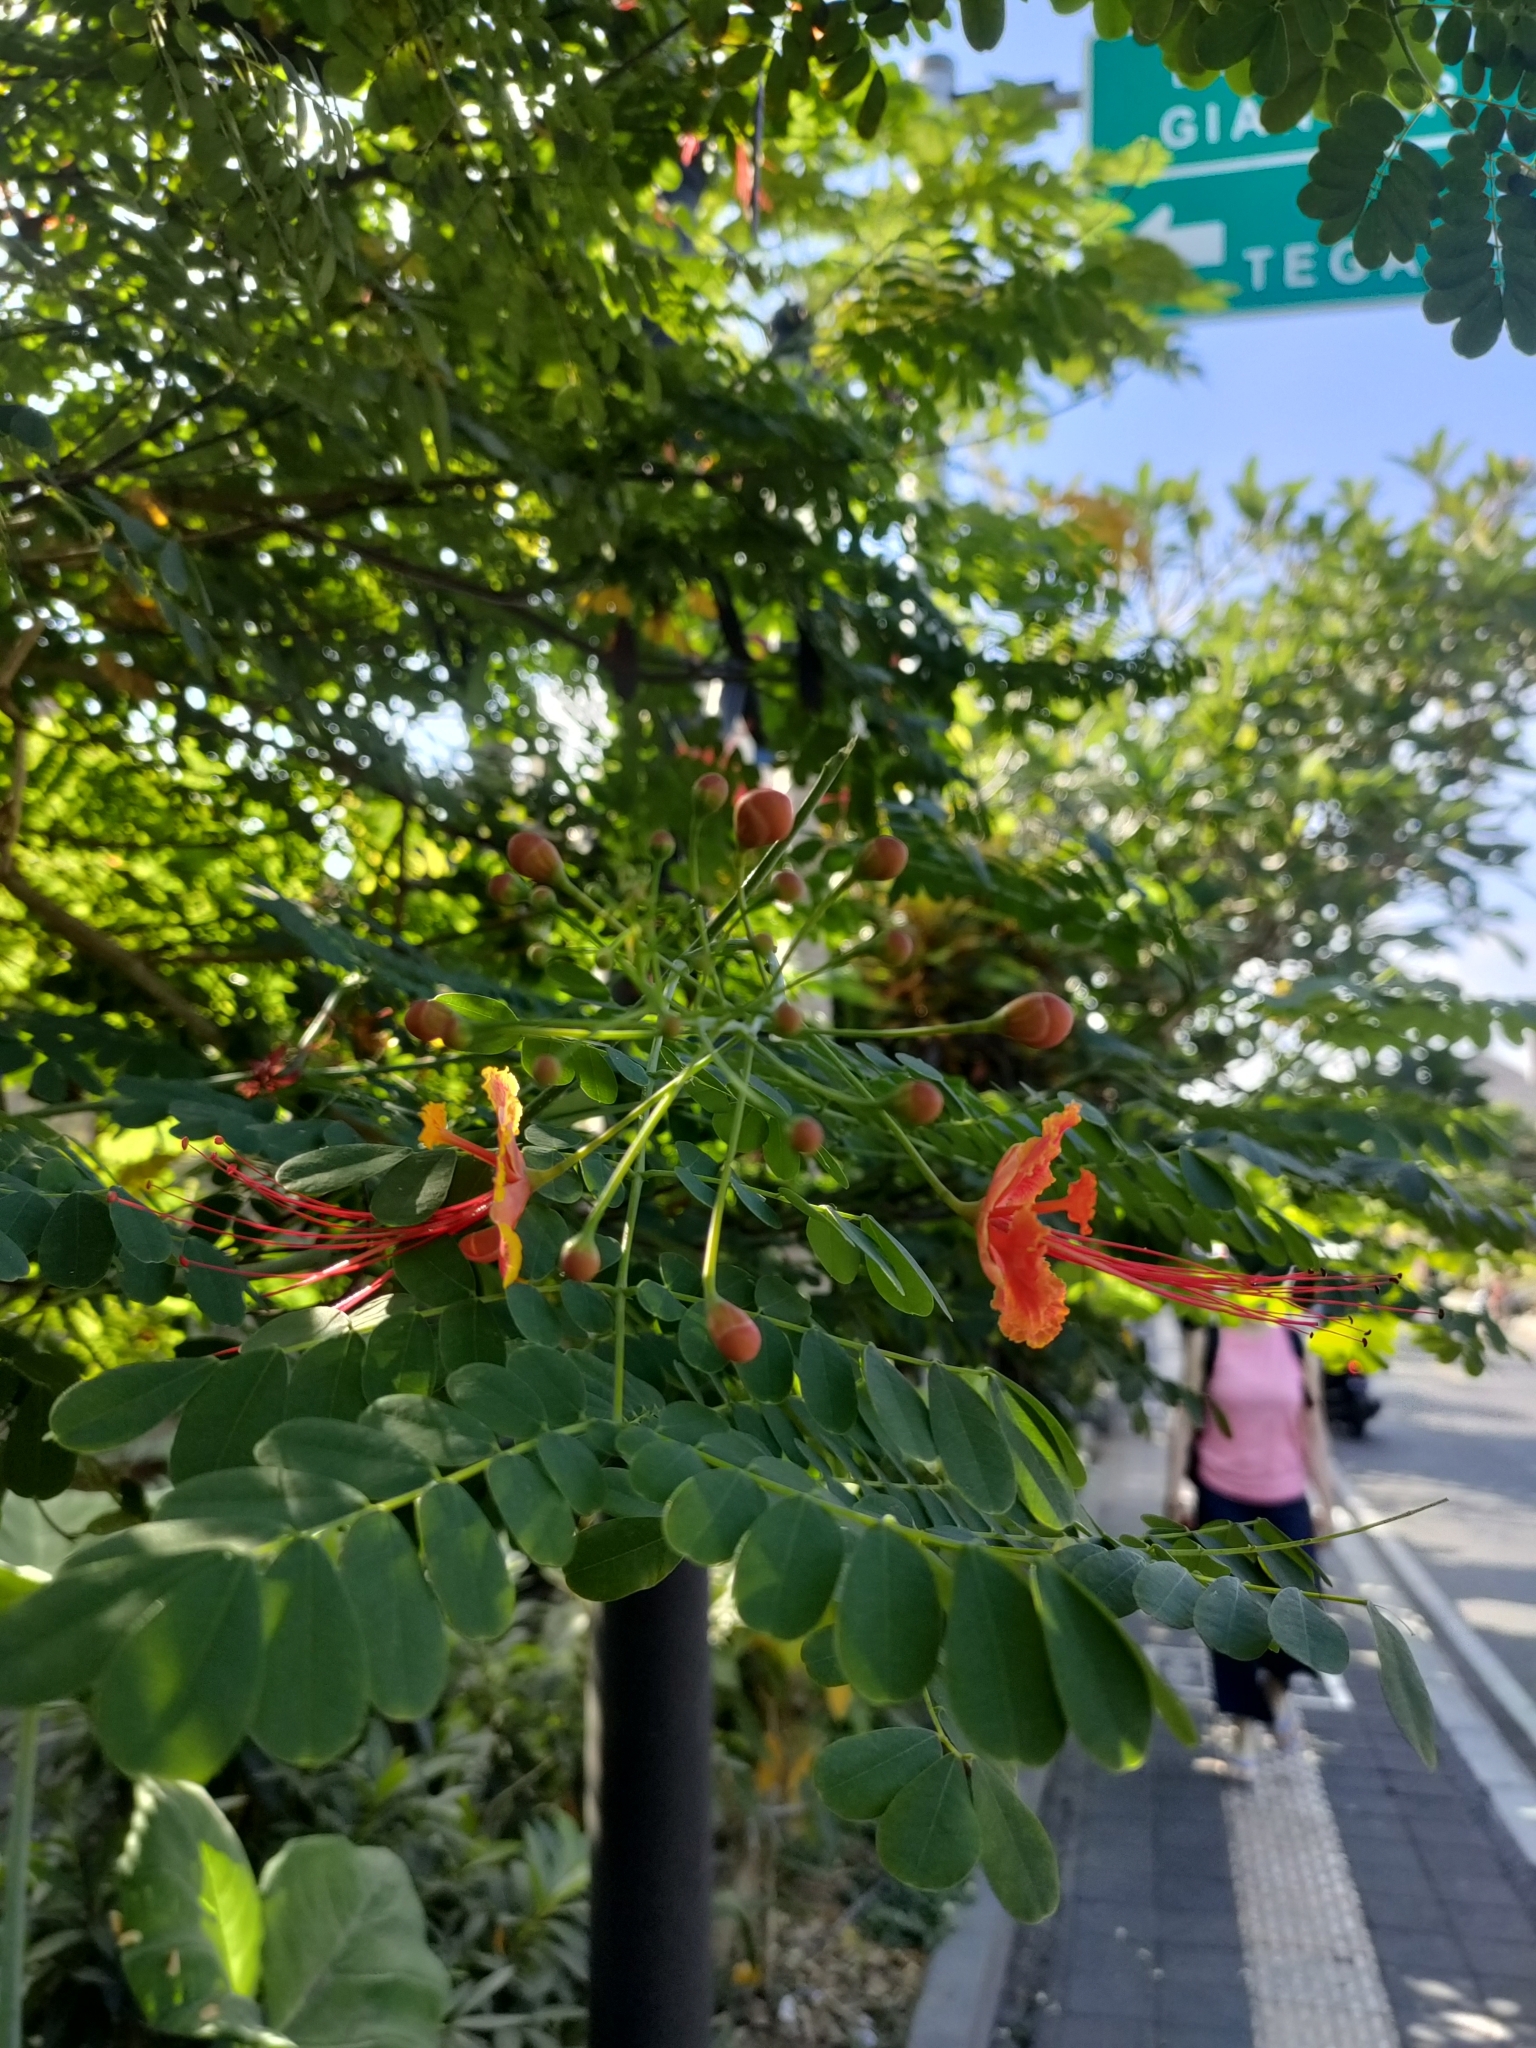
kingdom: Plantae
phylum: Tracheophyta
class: Magnoliopsida
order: Fabales
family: Fabaceae
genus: Caesalpinia
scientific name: Caesalpinia pulcherrima
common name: Pride-of-barbados
